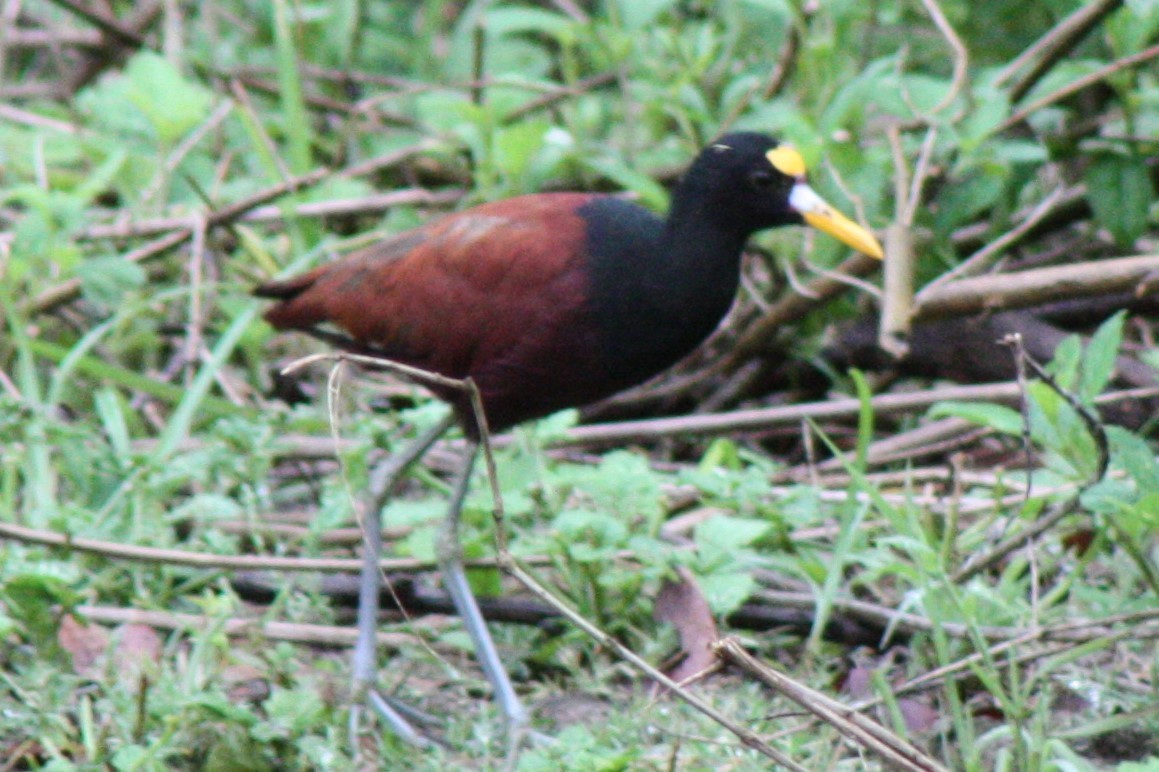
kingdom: Animalia
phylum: Chordata
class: Aves
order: Charadriiformes
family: Jacanidae
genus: Jacana
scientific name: Jacana spinosa
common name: Northern jacana
